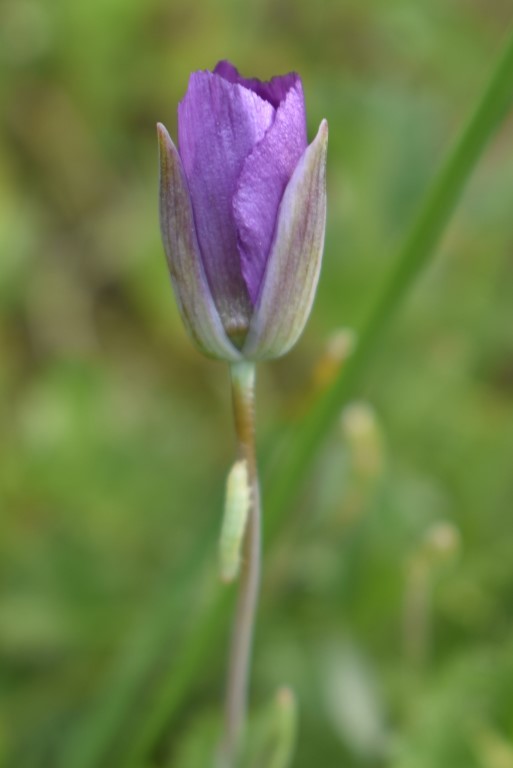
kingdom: Plantae
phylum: Tracheophyta
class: Liliopsida
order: Liliales
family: Liliaceae
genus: Calochortus
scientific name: Calochortus nudus
